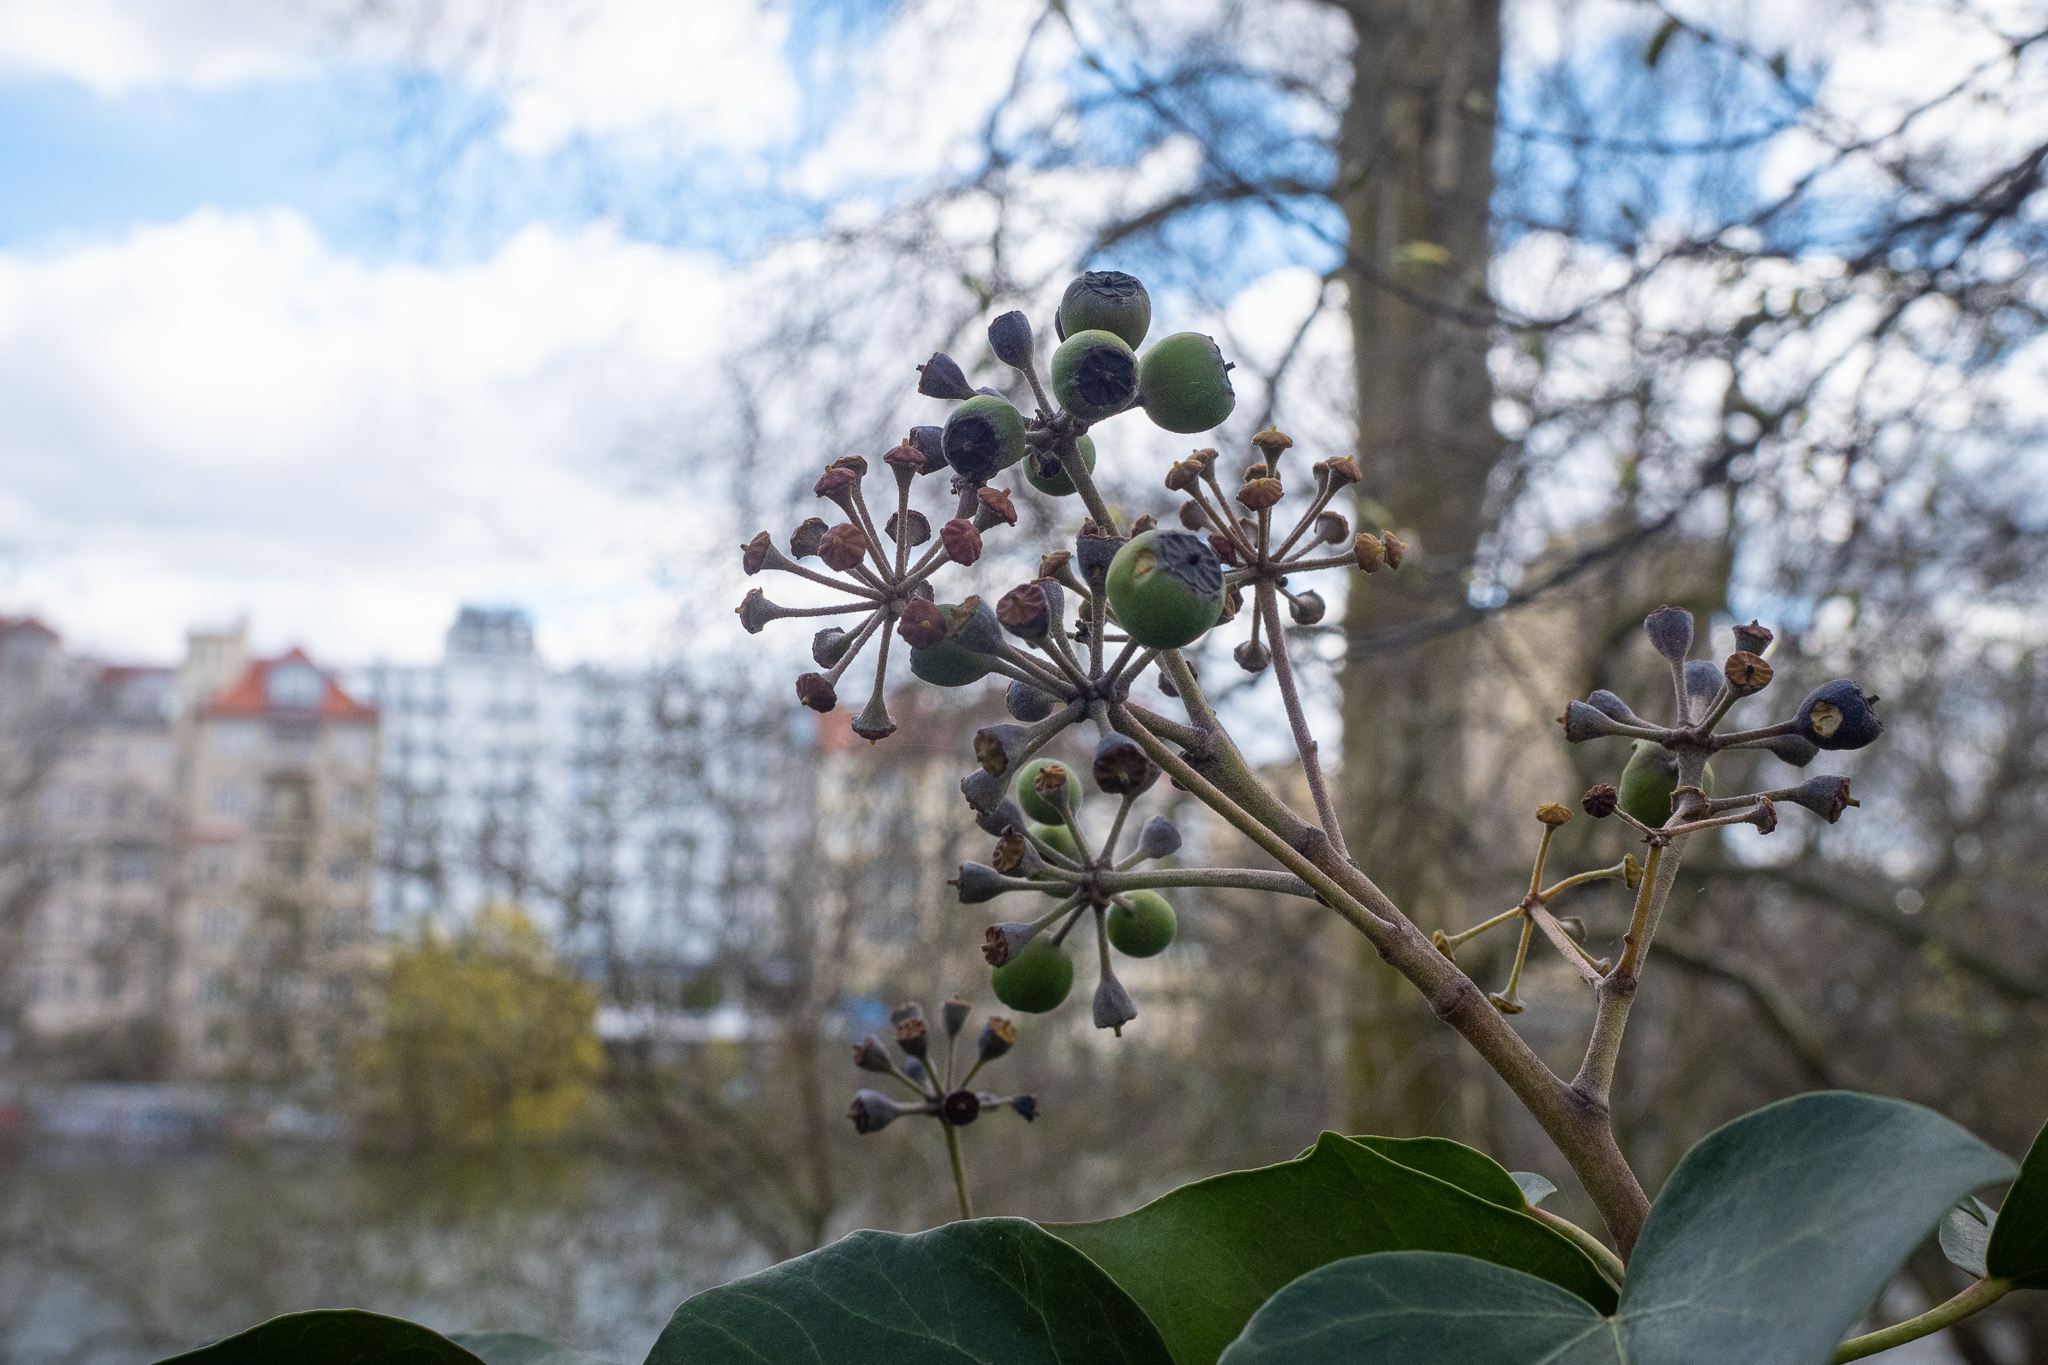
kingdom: Plantae
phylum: Tracheophyta
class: Magnoliopsida
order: Apiales
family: Araliaceae
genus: Hedera
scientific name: Hedera helix
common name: Ivy
